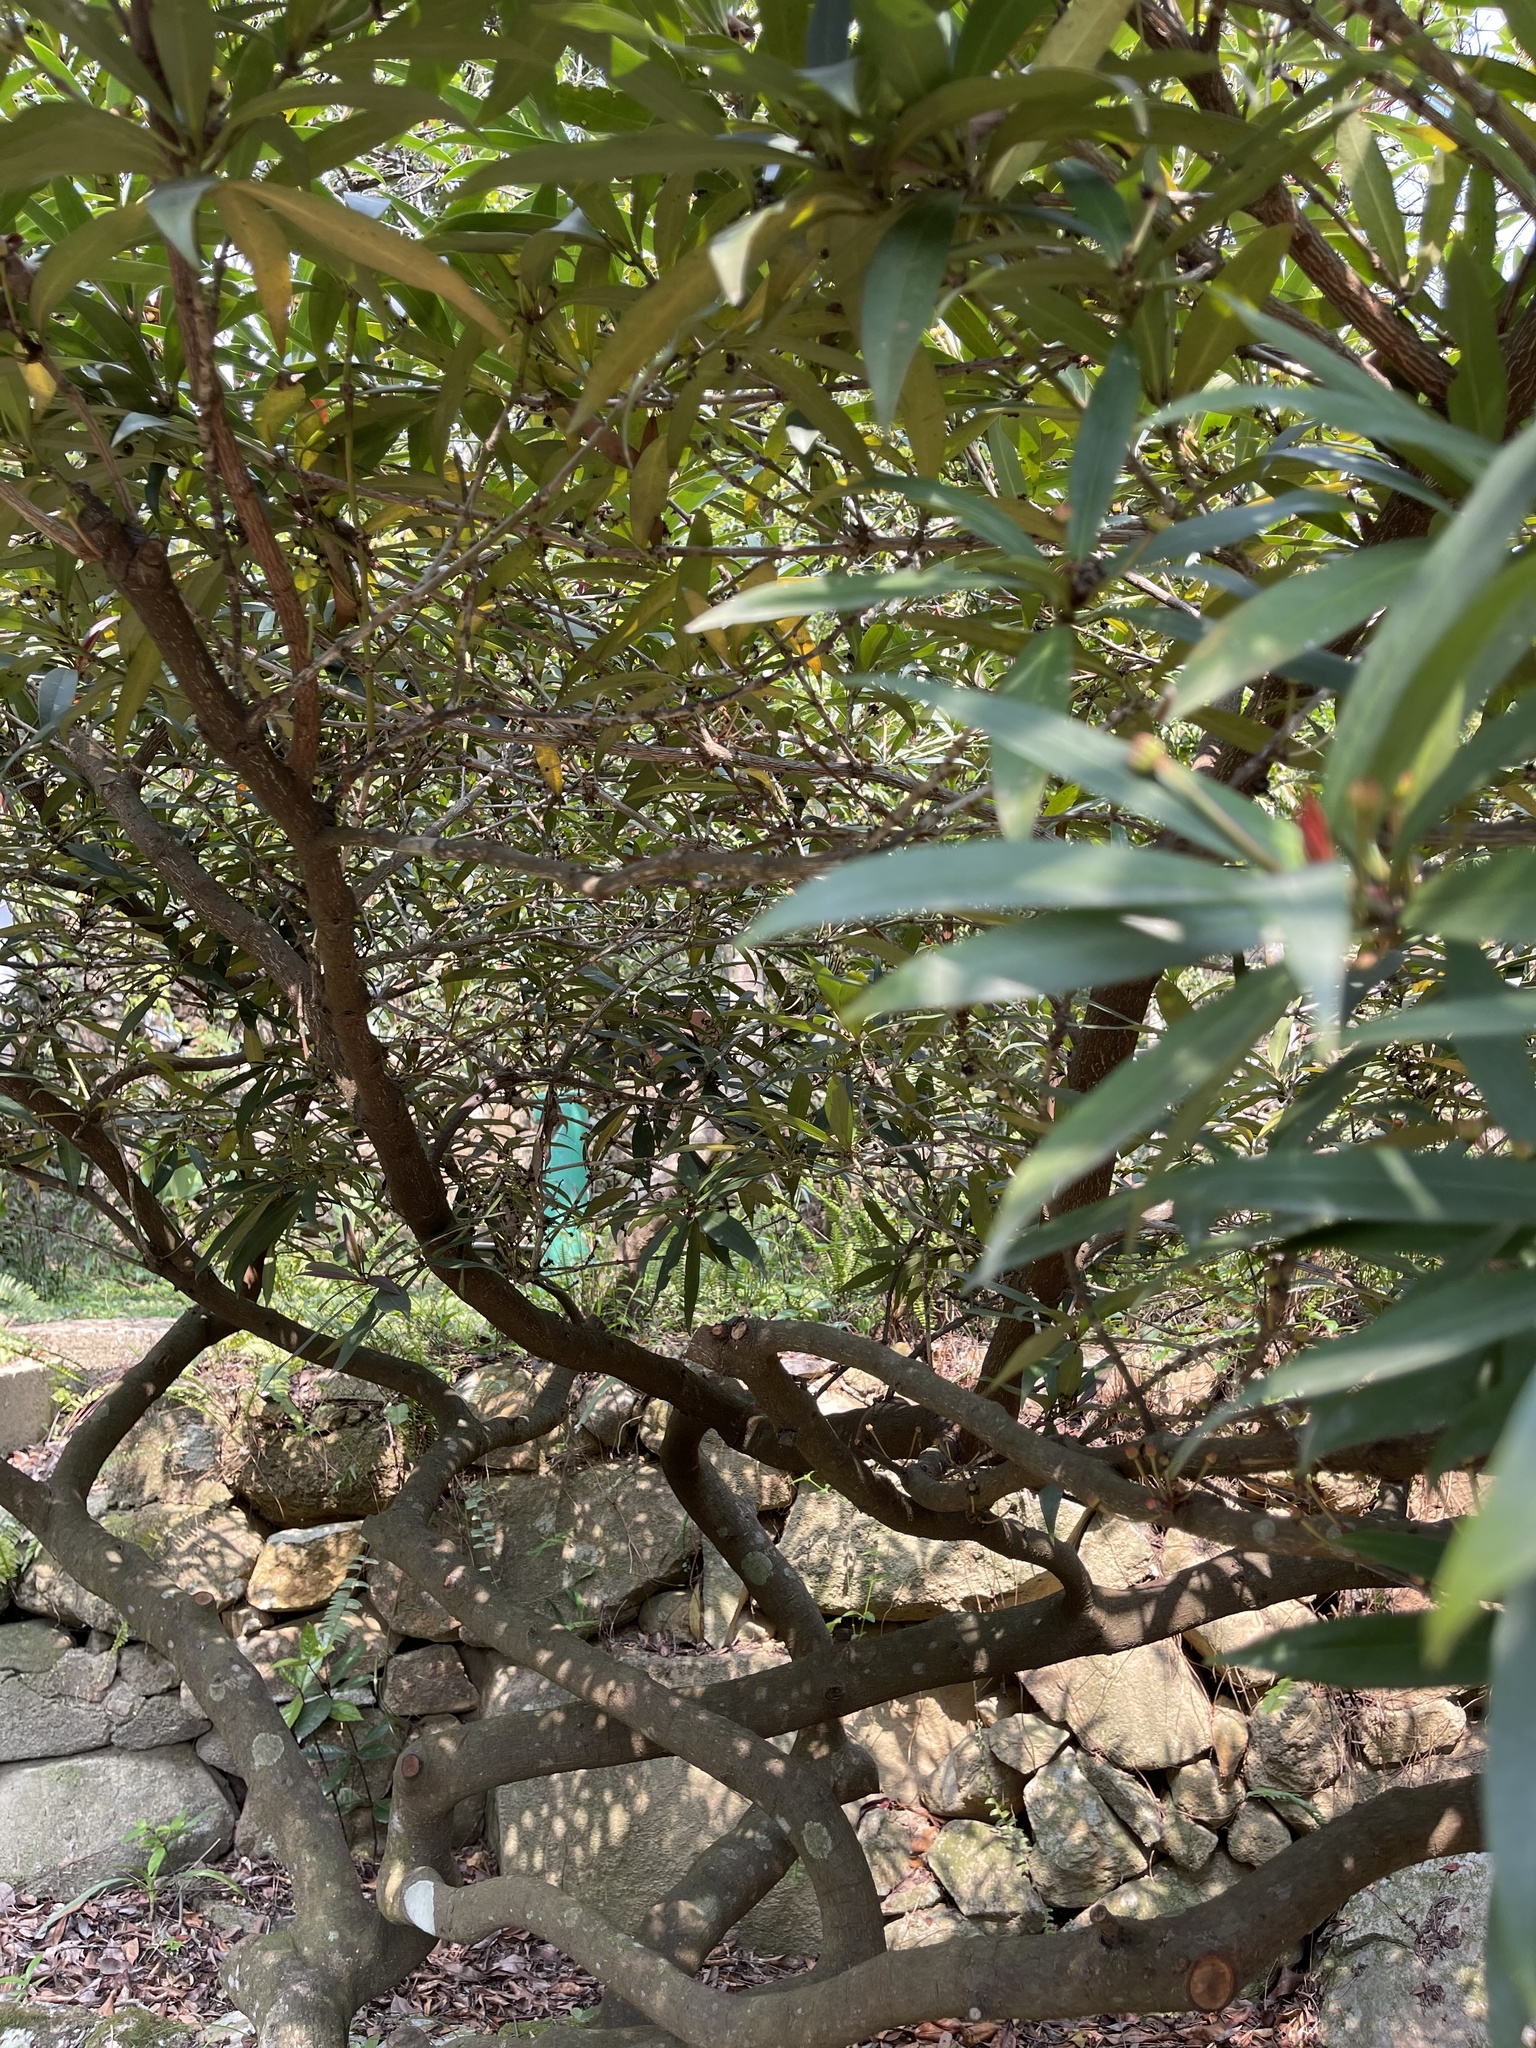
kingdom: Plantae
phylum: Tracheophyta
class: Magnoliopsida
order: Austrobaileyales
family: Schisandraceae
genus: Illicium
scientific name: Illicium dunnianum
